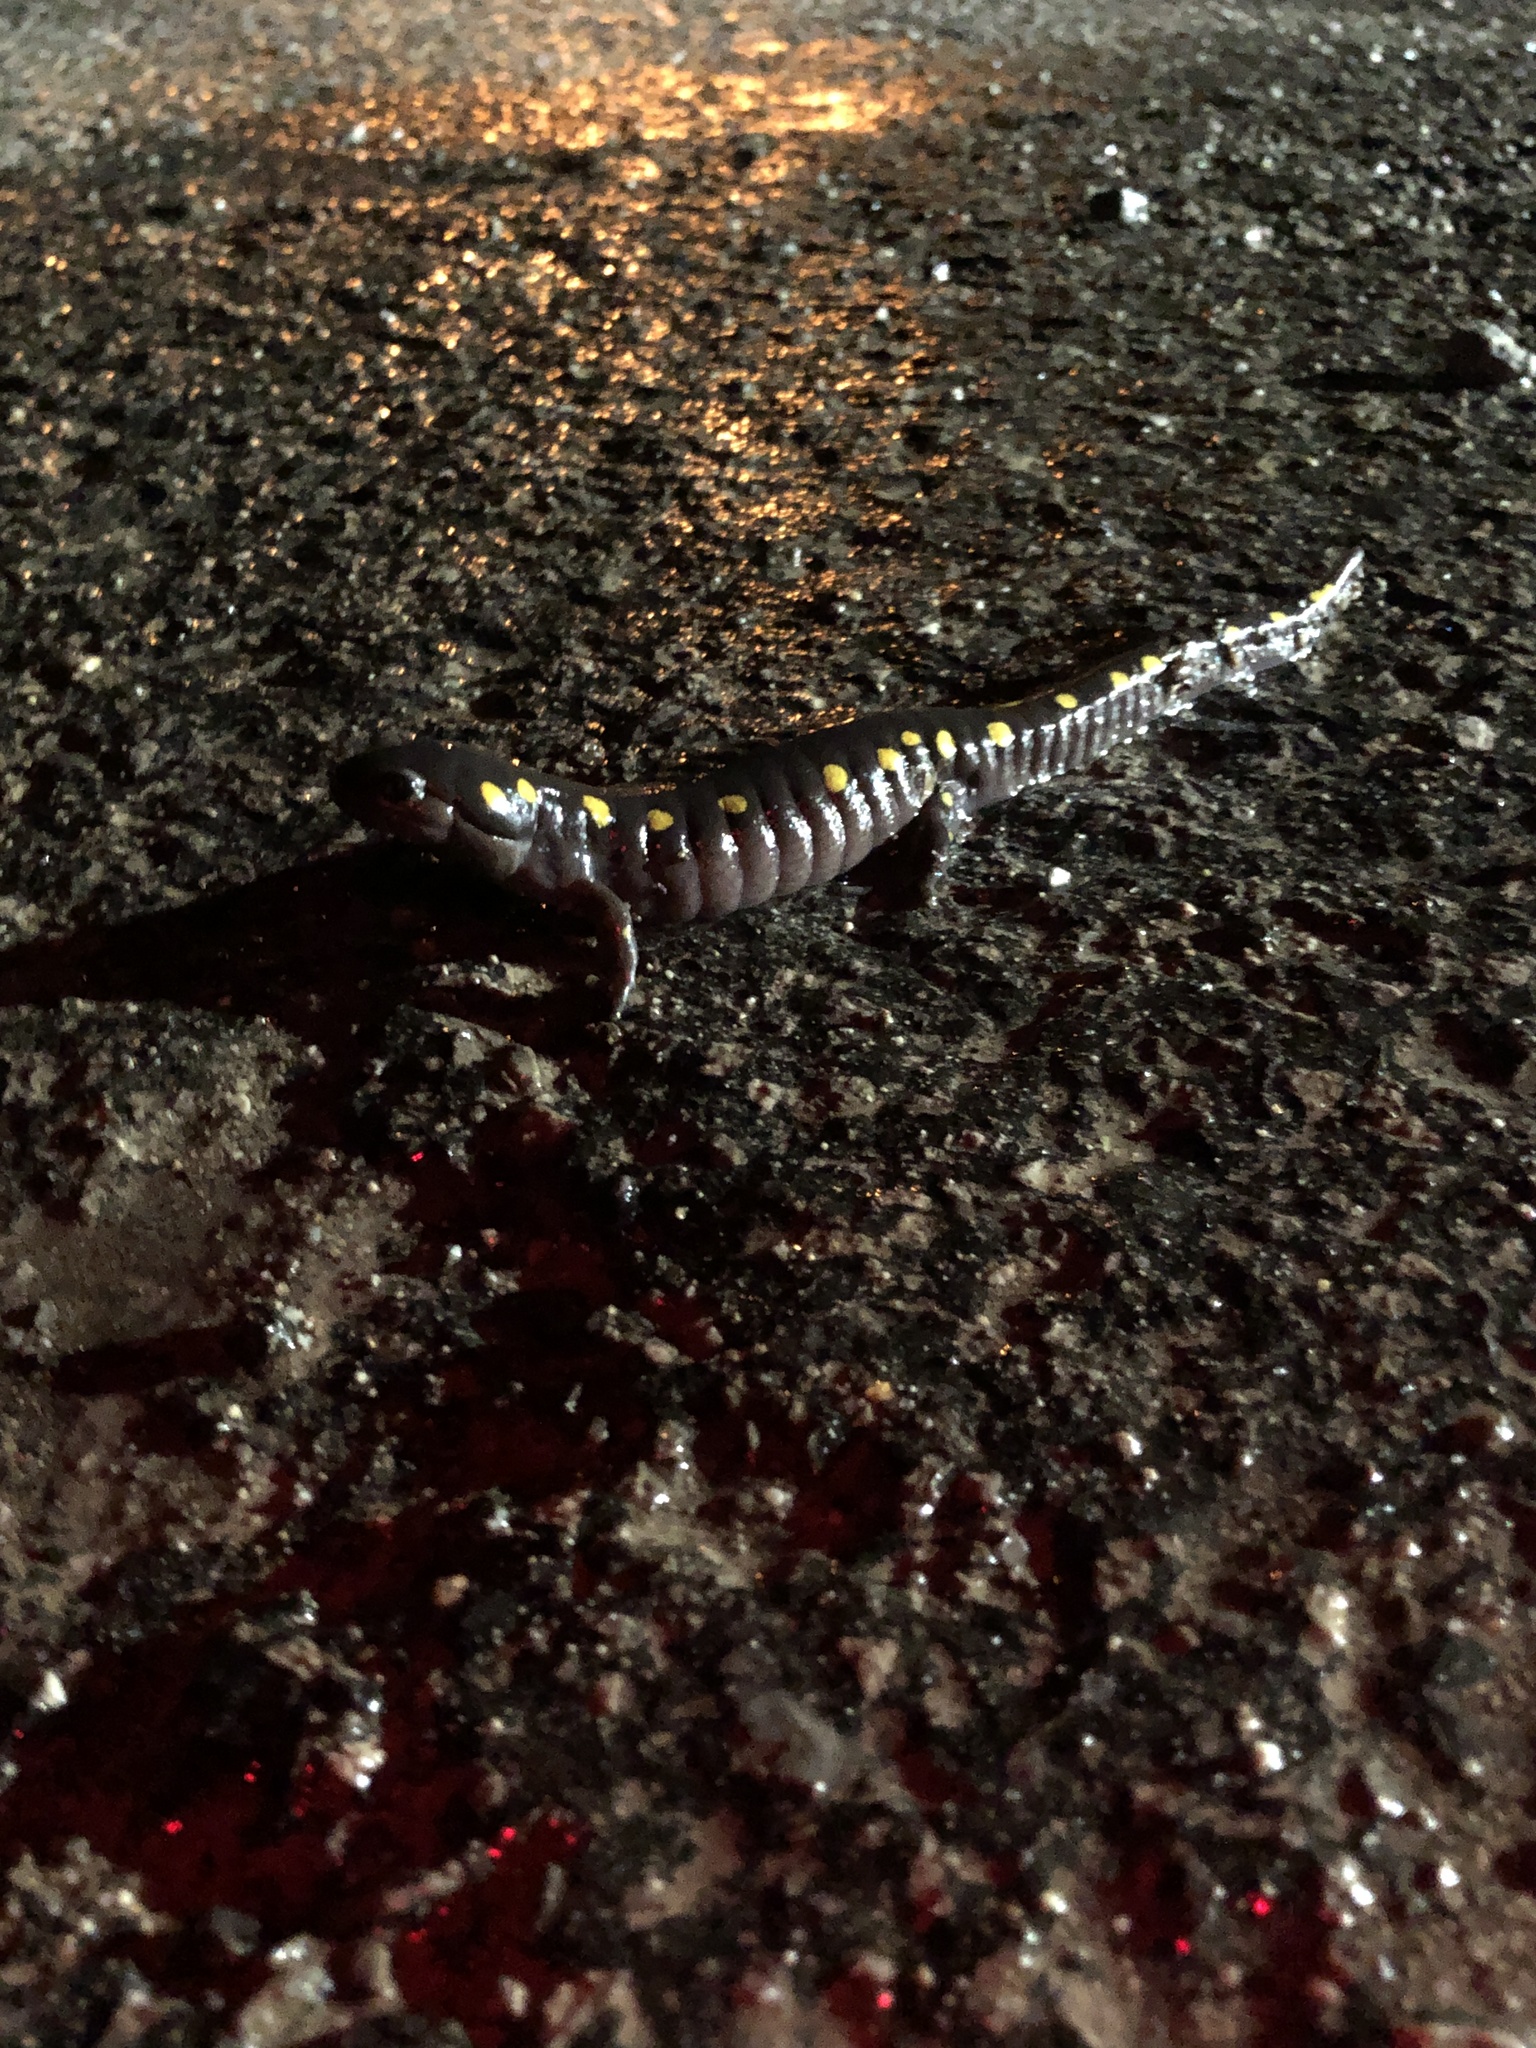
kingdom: Animalia
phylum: Chordata
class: Amphibia
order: Caudata
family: Ambystomatidae
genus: Ambystoma
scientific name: Ambystoma maculatum
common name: Spotted salamander
